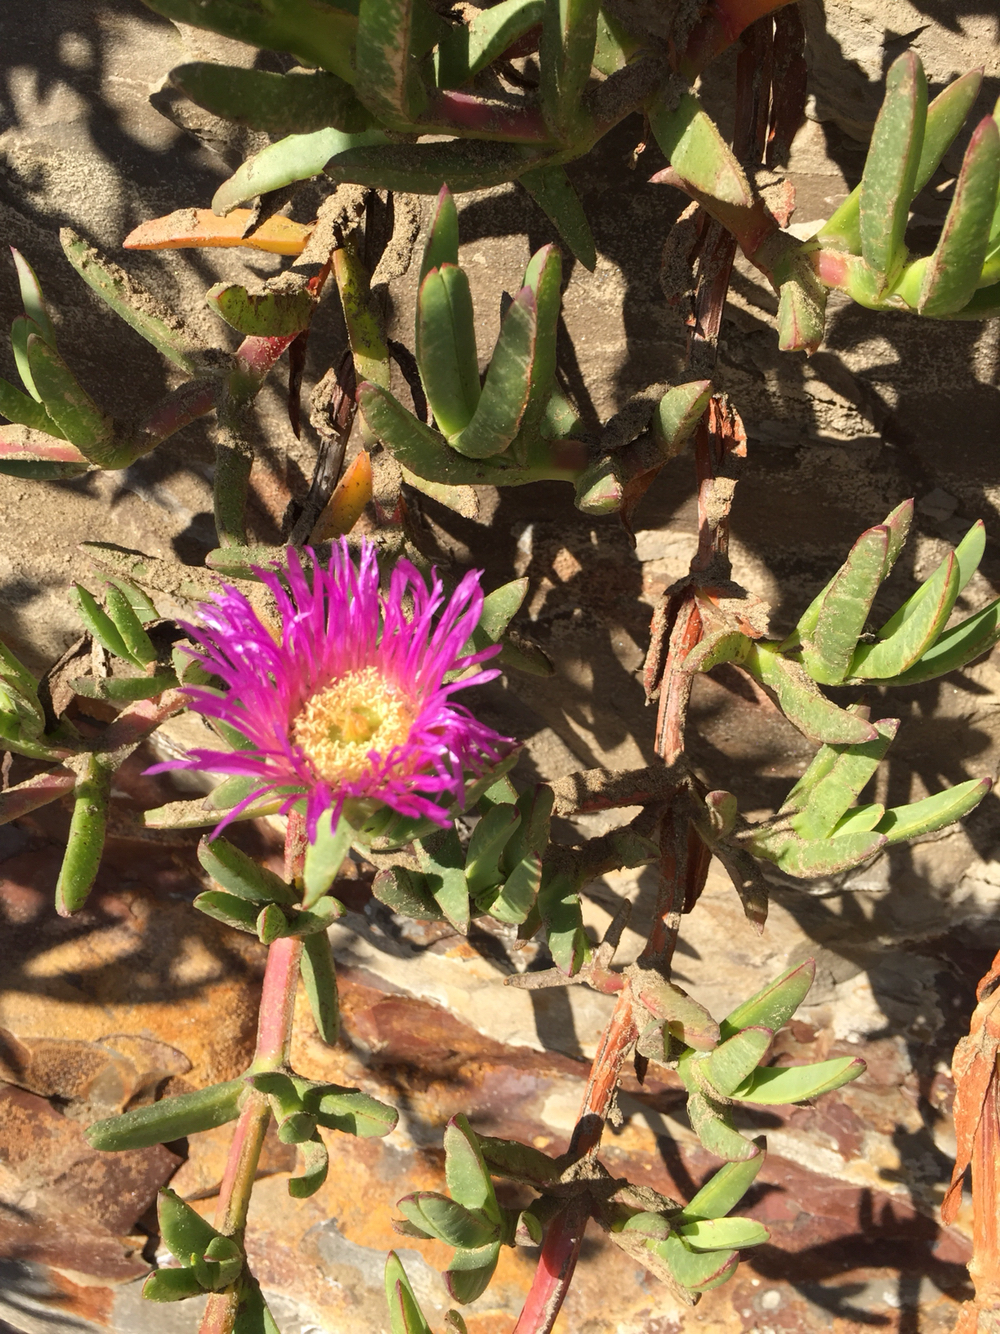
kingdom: Plantae
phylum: Tracheophyta
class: Magnoliopsida
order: Caryophyllales
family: Aizoaceae
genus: Carpobrotus
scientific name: Carpobrotus chilensis
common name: Sea fig
